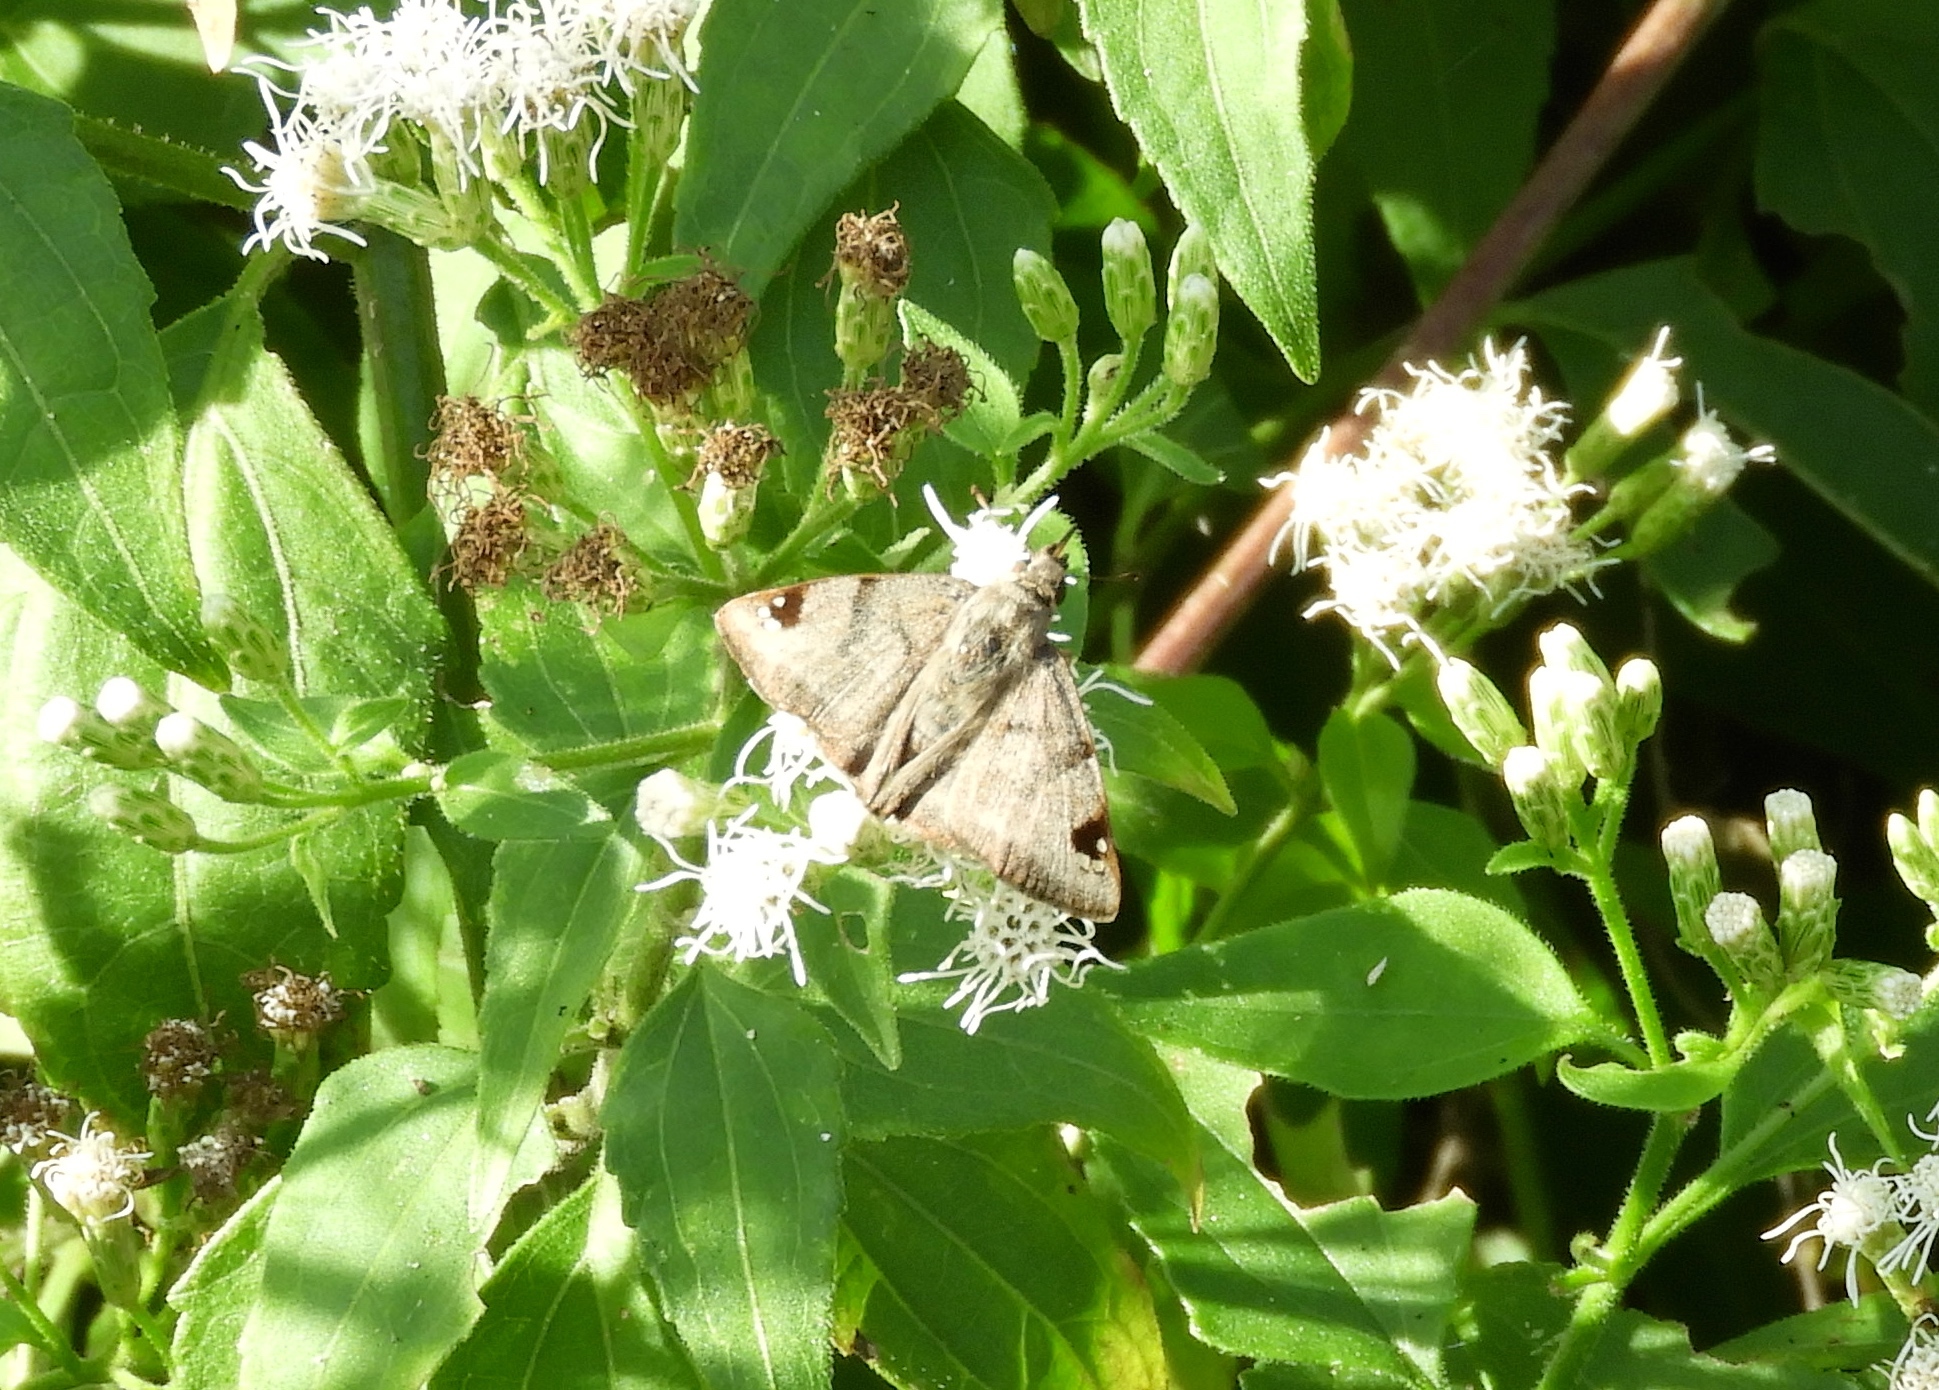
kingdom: Animalia
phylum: Arthropoda
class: Insecta
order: Lepidoptera
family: Hesperiidae
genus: Arteurotia
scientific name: Arteurotia tractipennis
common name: Starred skipper
